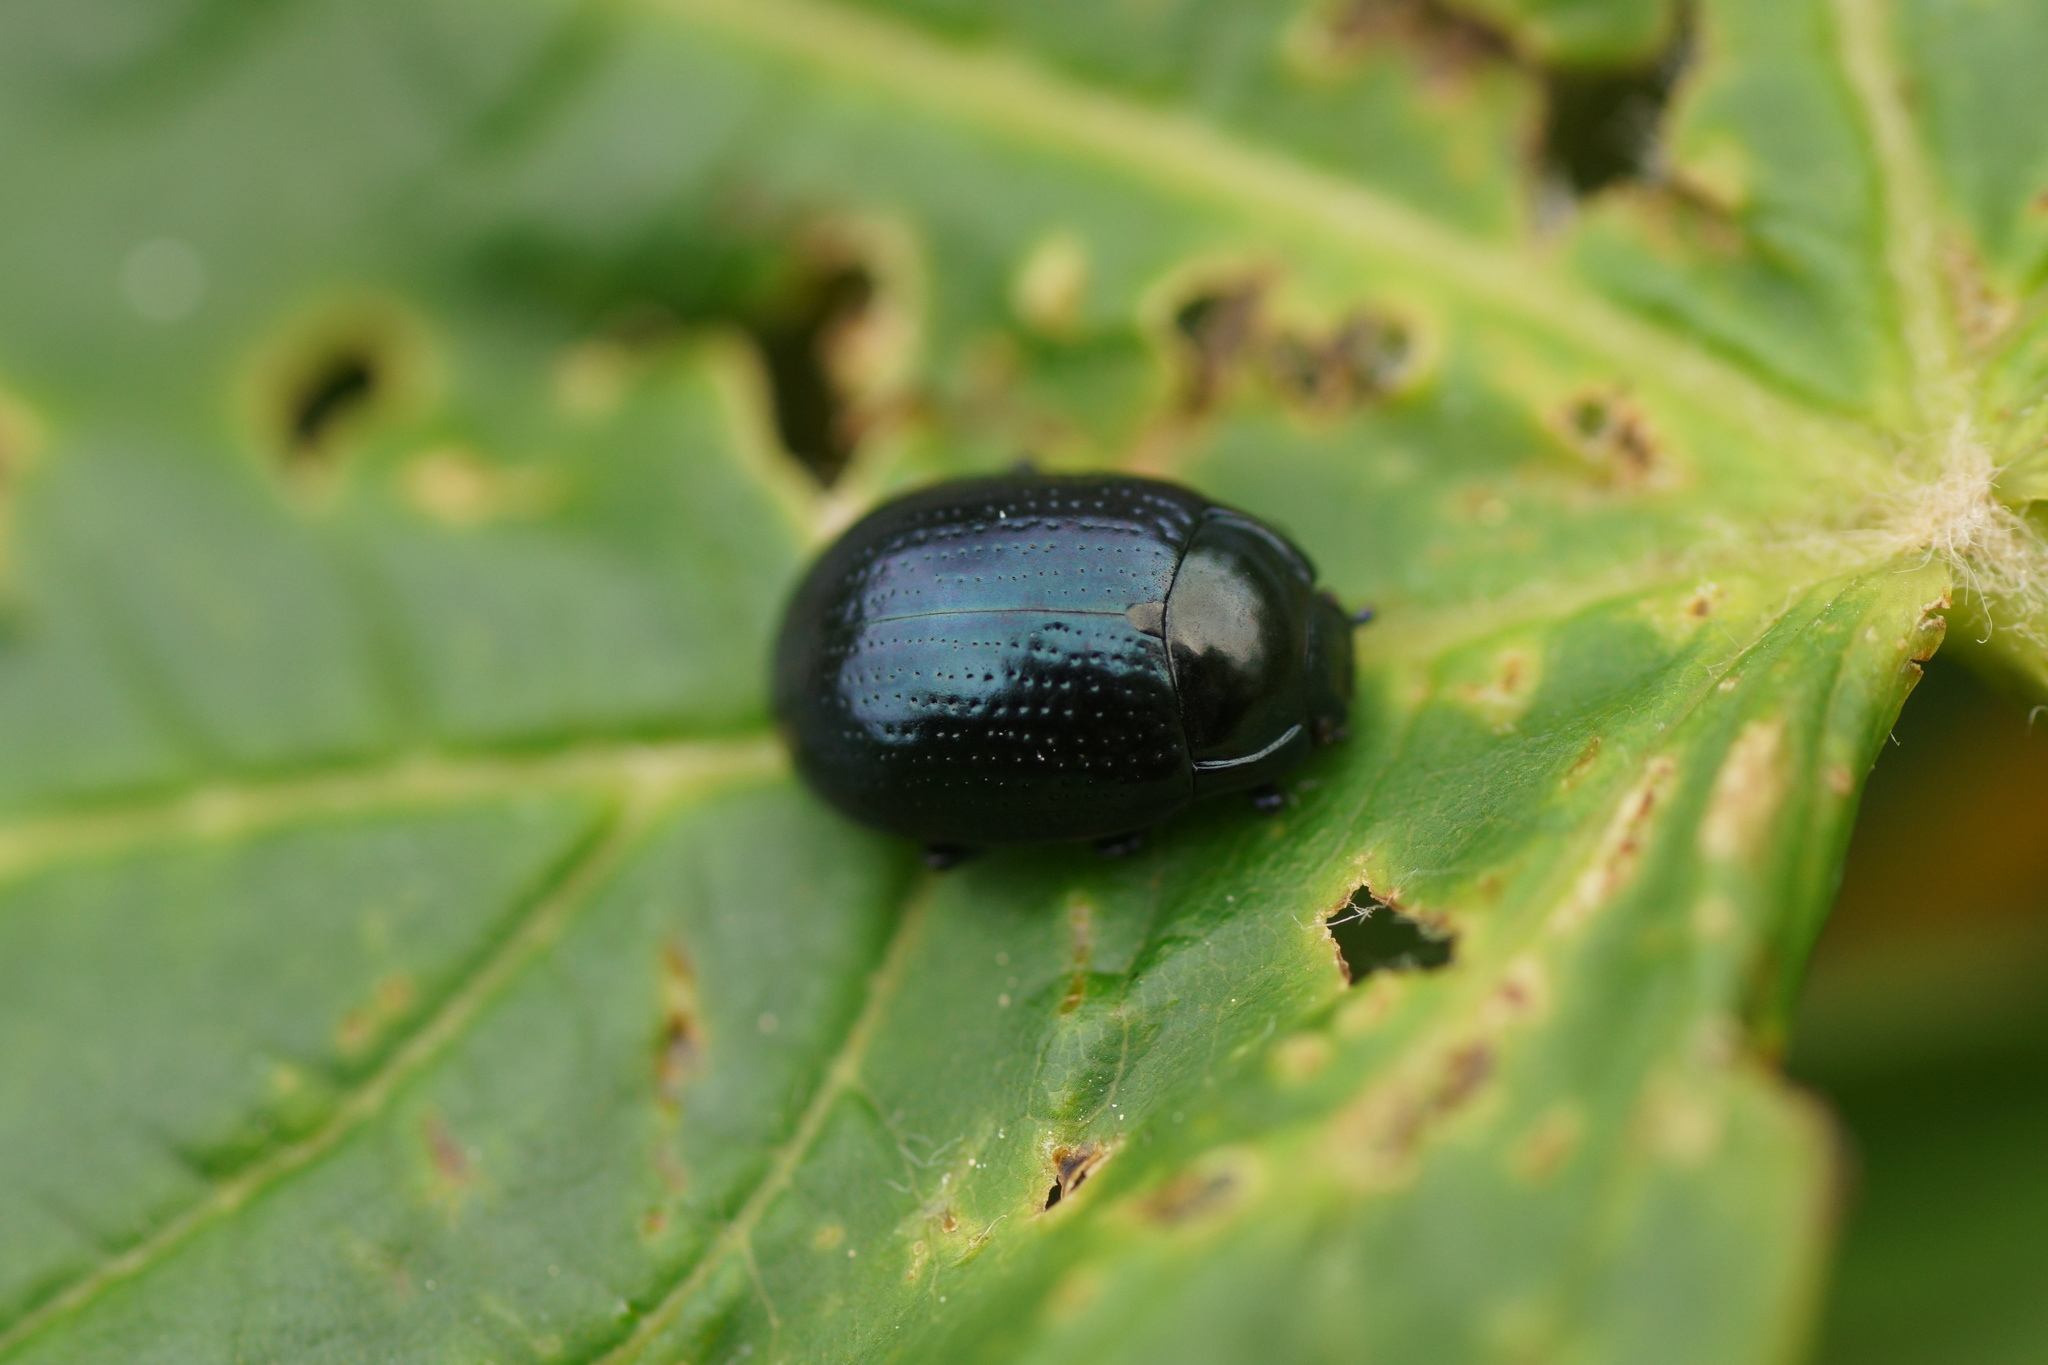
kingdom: Animalia
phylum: Arthropoda
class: Insecta
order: Coleoptera
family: Chrysomelidae
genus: Chrysolina
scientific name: Chrysolina oricalcia
